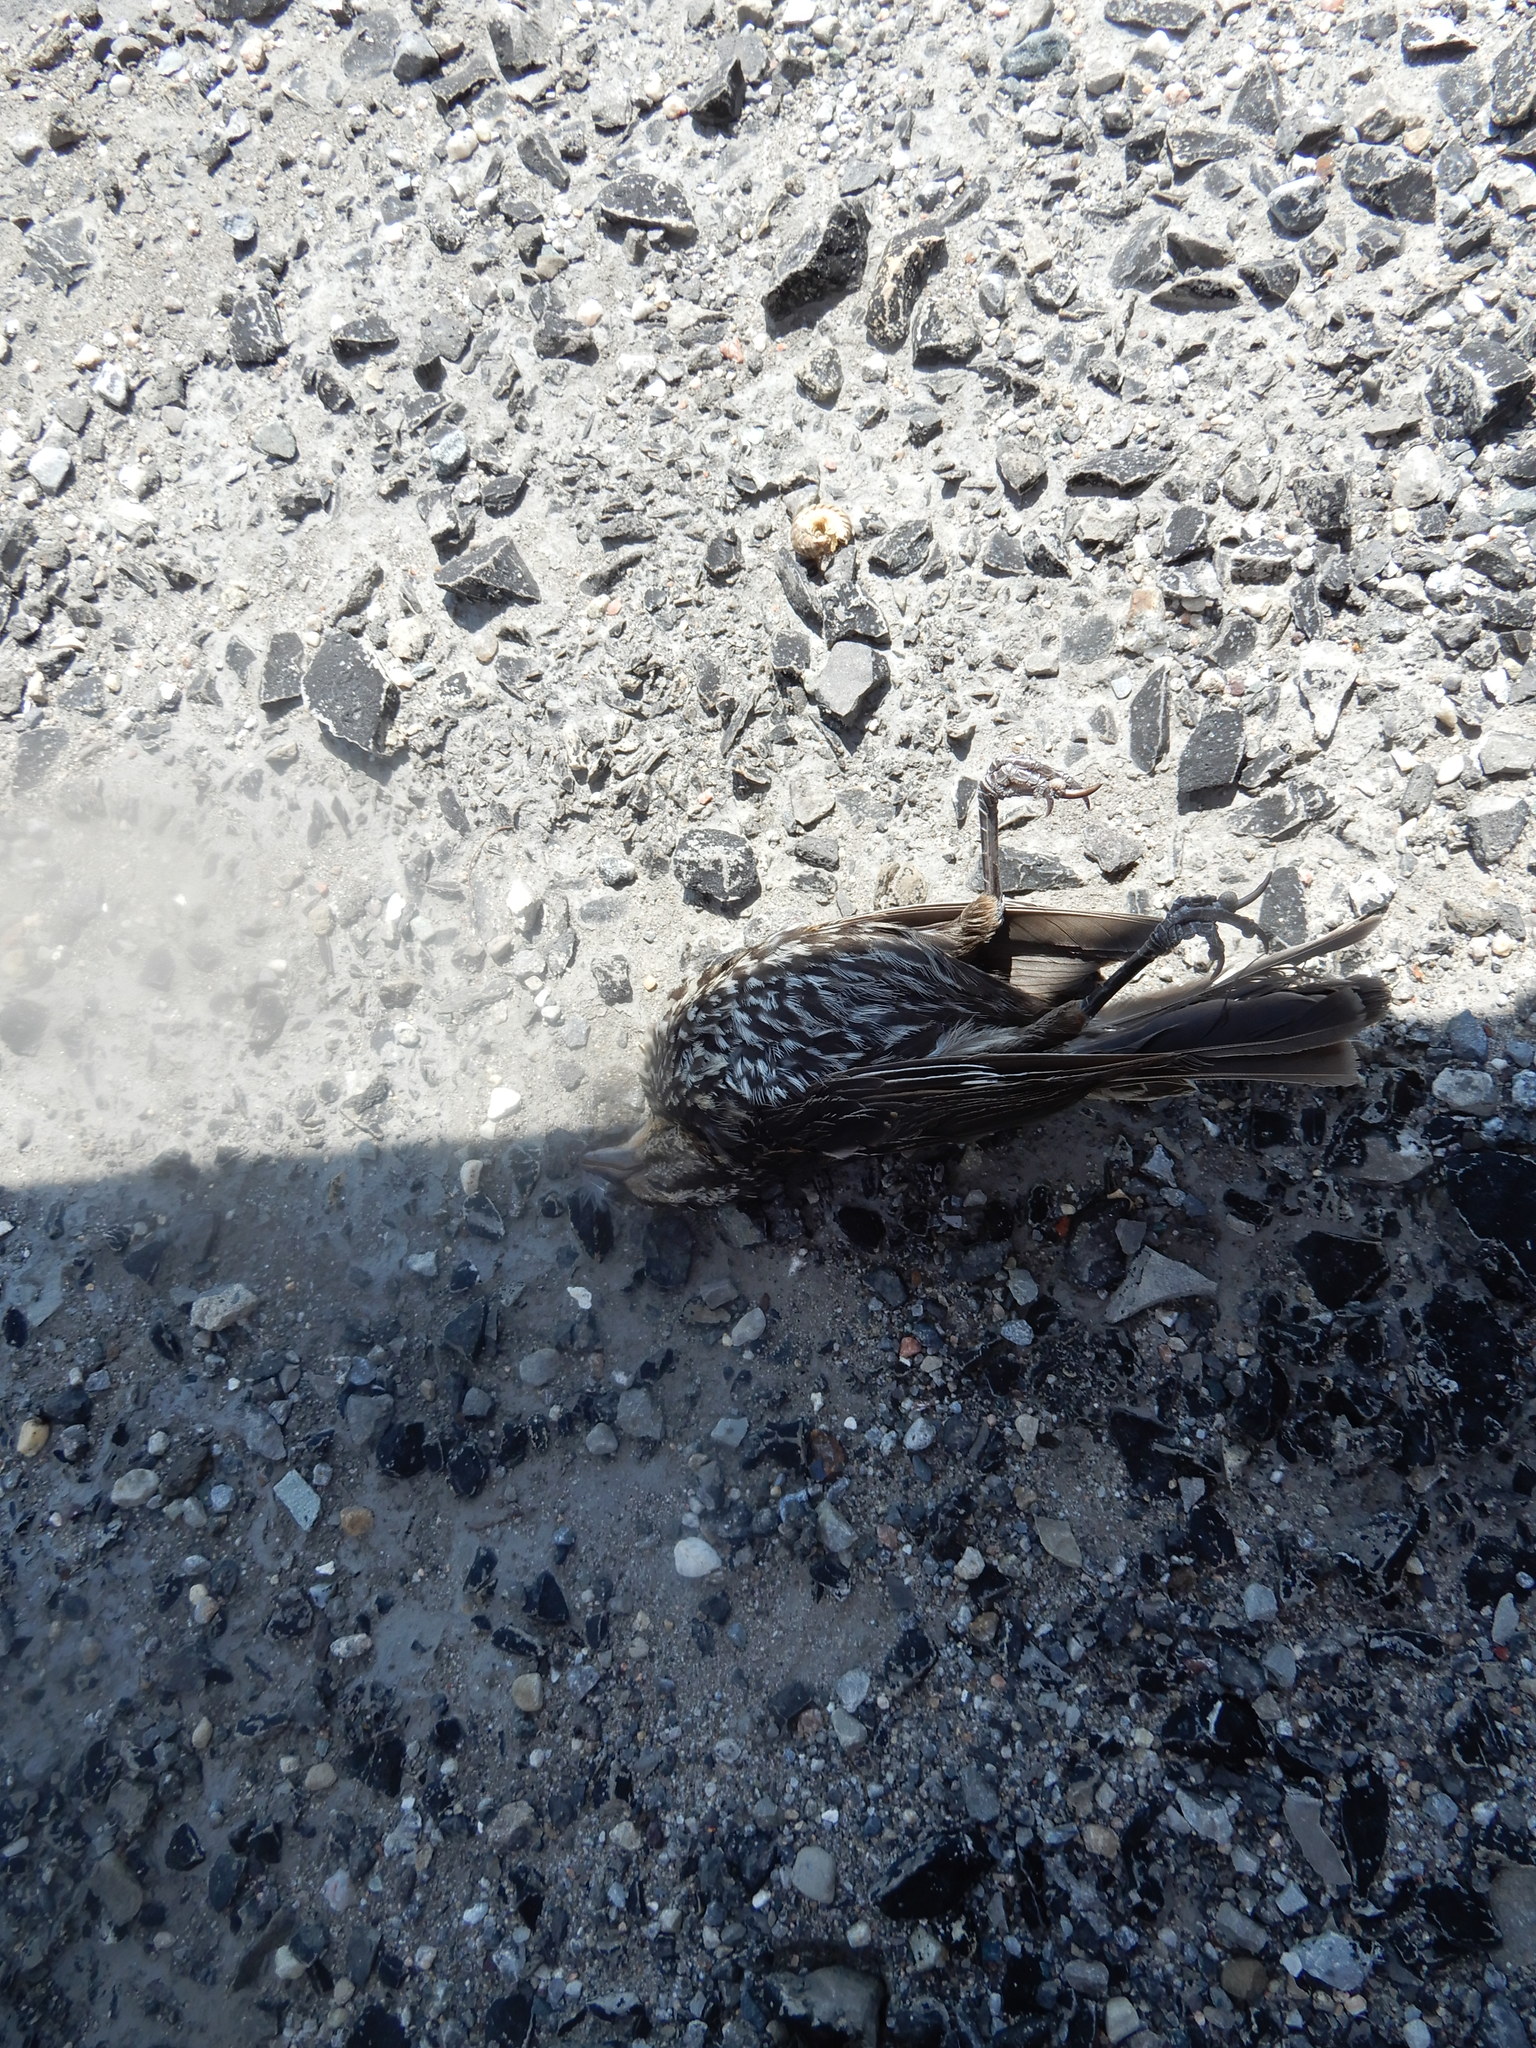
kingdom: Animalia
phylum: Chordata
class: Aves
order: Passeriformes
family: Icteridae
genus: Agelaius
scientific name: Agelaius phoeniceus
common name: Red-winged blackbird
